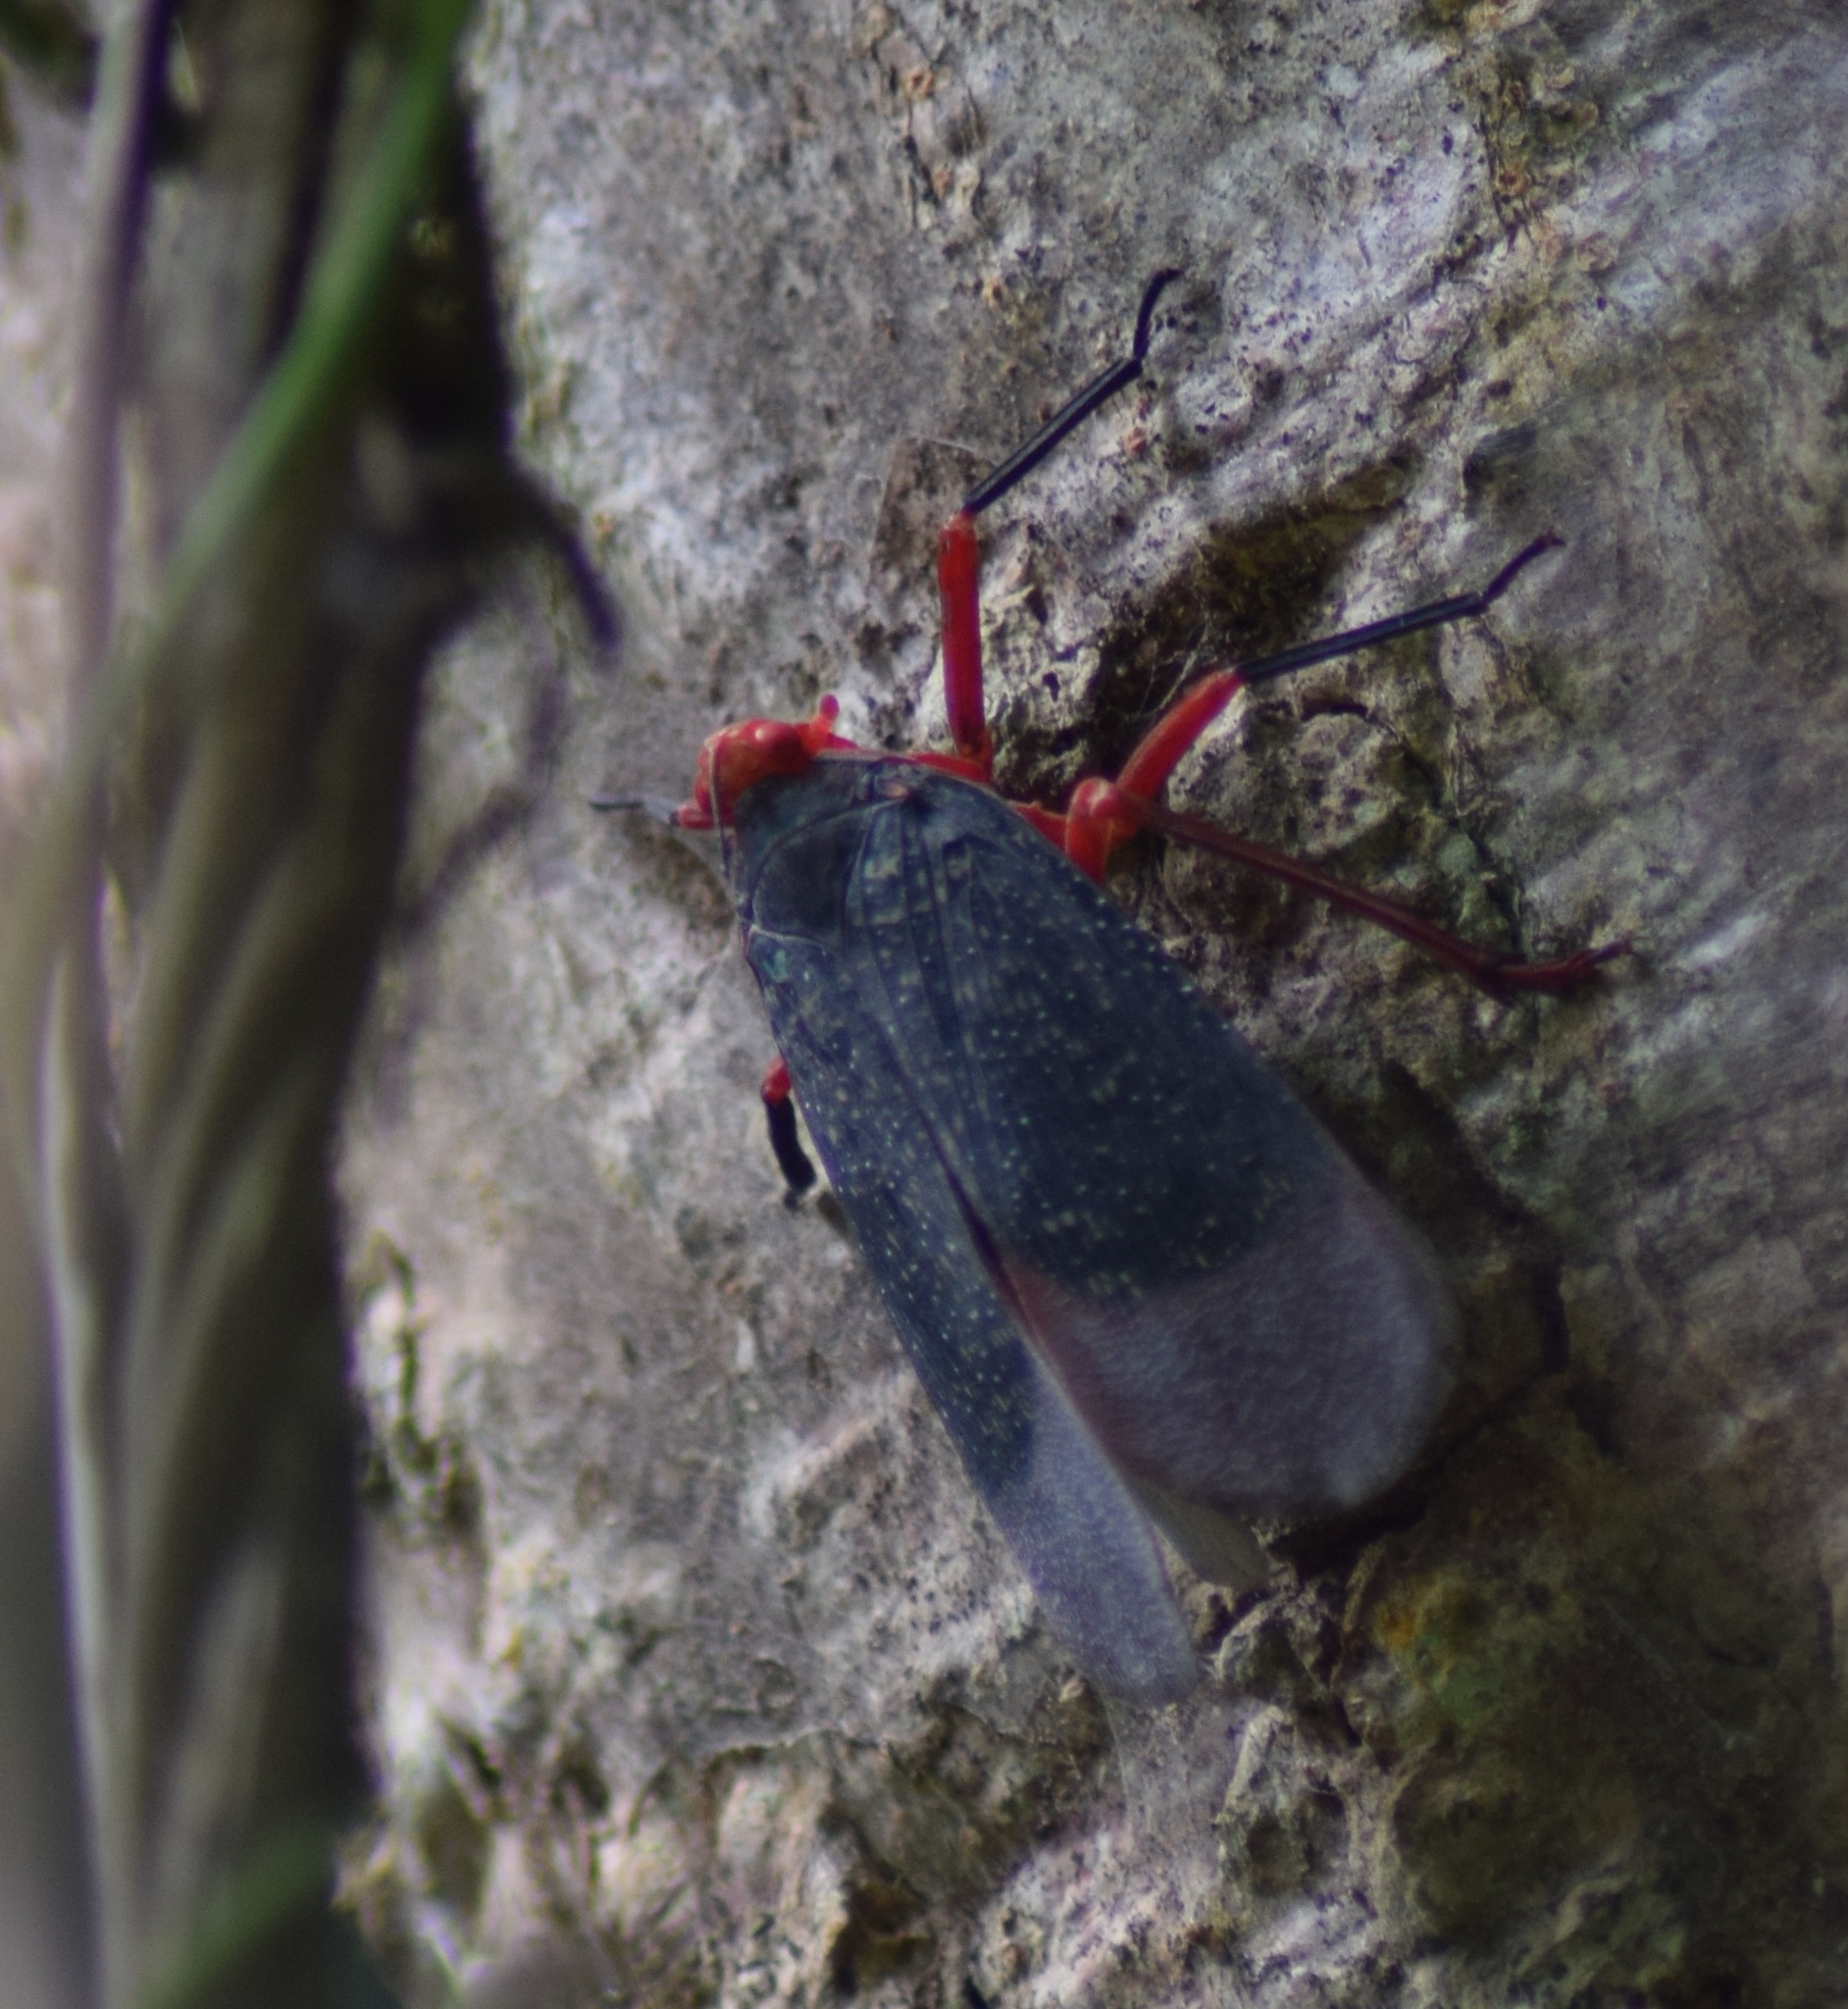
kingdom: Animalia
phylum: Arthropoda
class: Insecta
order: Hemiptera
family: Fulgoridae
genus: Kalidasa
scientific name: Kalidasa lanata
